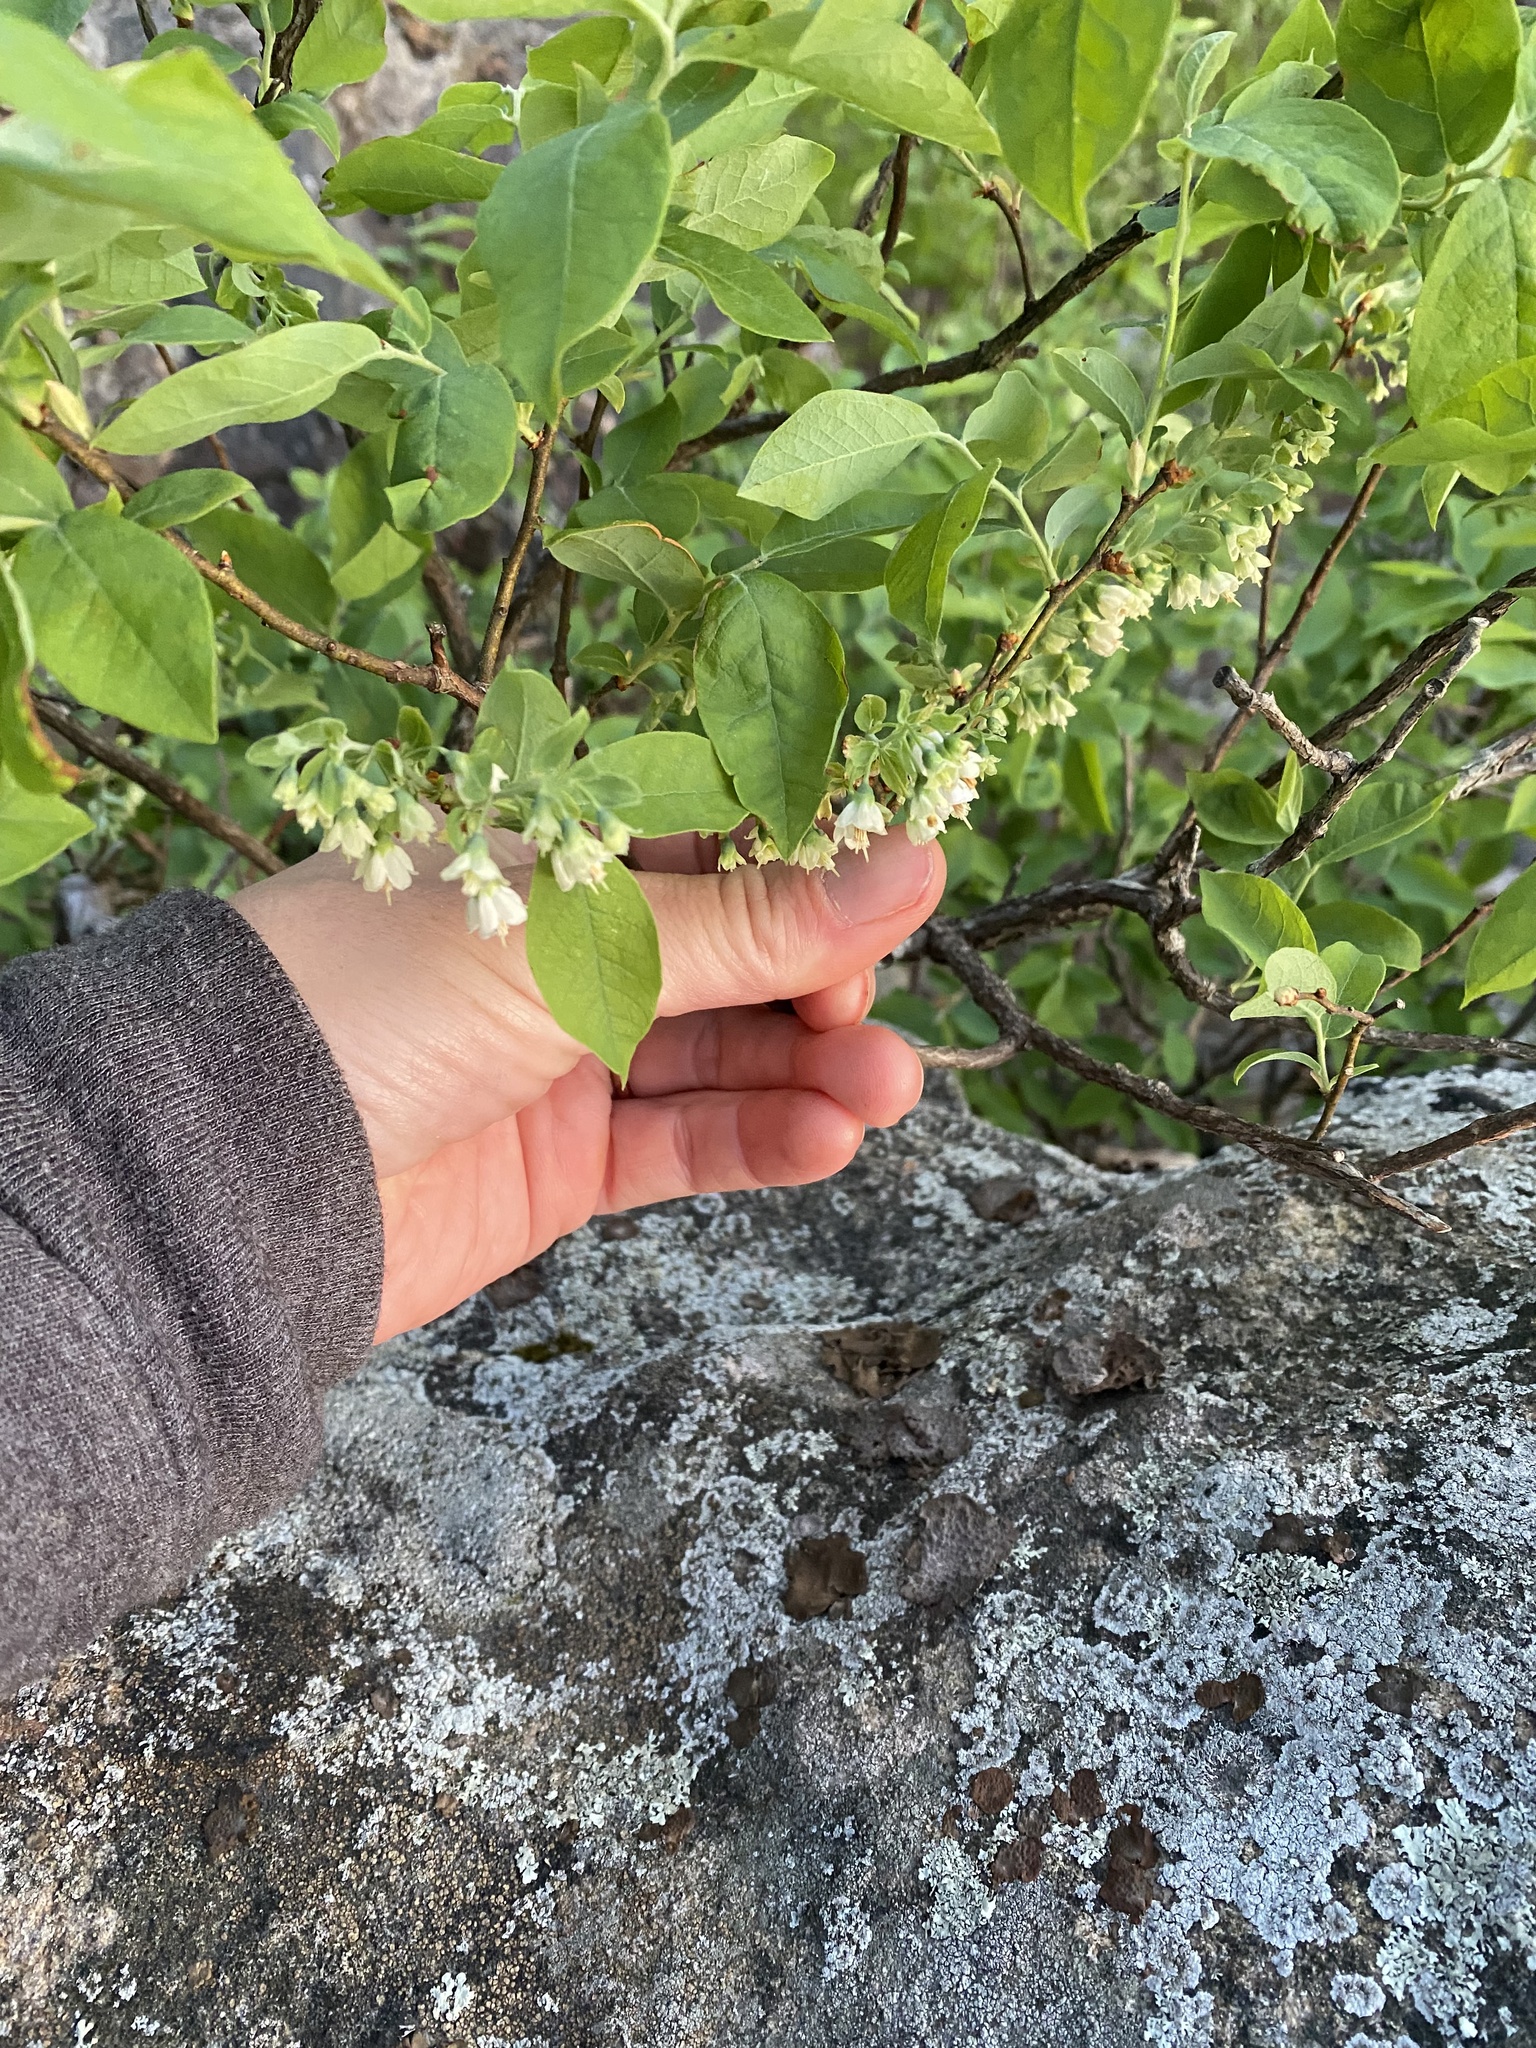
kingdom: Plantae
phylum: Tracheophyta
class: Magnoliopsida
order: Ericales
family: Ericaceae
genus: Vaccinium
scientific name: Vaccinium stamineum
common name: Deerberry
